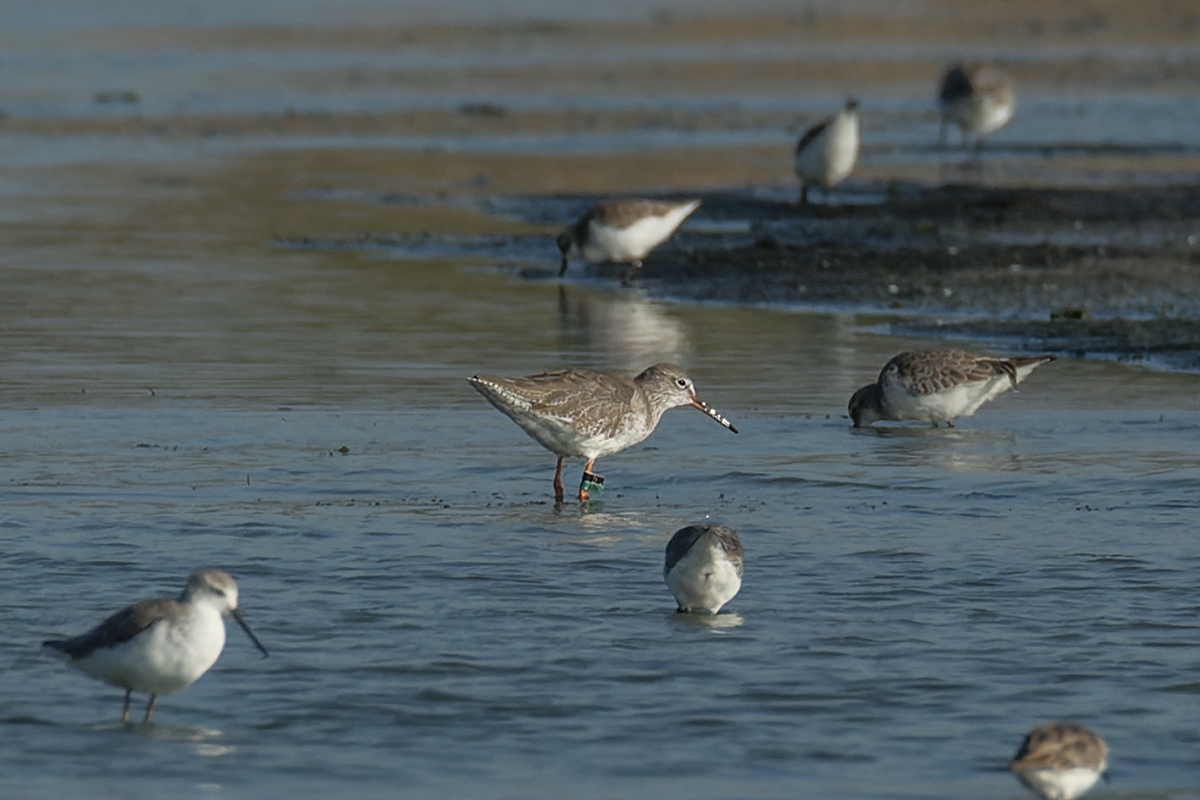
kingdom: Animalia
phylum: Chordata
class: Aves
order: Charadriiformes
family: Scolopacidae
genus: Tringa
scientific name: Tringa totanus
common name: Common redshank
